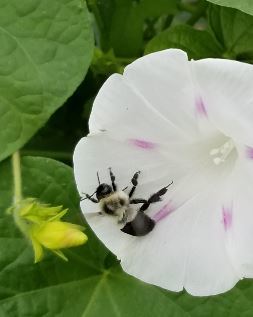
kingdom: Animalia
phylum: Arthropoda
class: Insecta
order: Hymenoptera
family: Apidae
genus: Bombus
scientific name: Bombus impatiens
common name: Common eastern bumble bee
